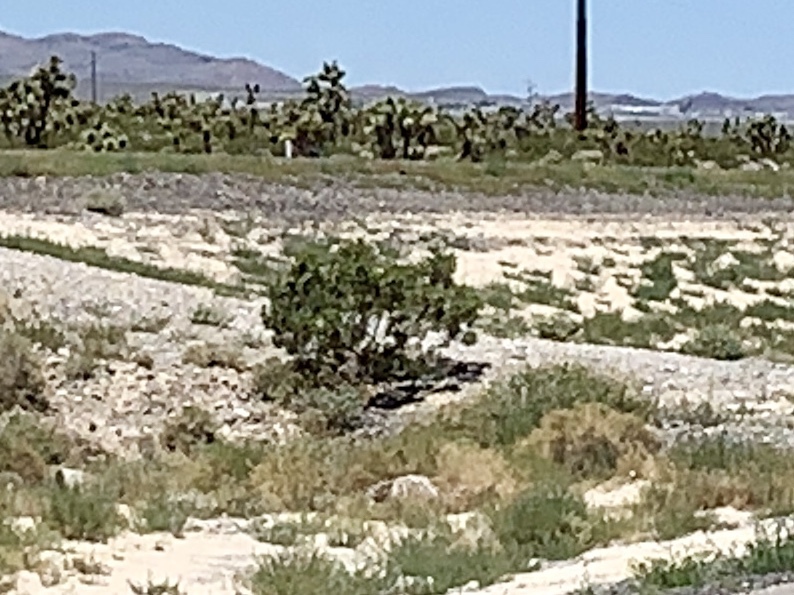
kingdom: Plantae
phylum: Tracheophyta
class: Magnoliopsida
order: Zygophyllales
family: Zygophyllaceae
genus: Larrea
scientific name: Larrea tridentata
